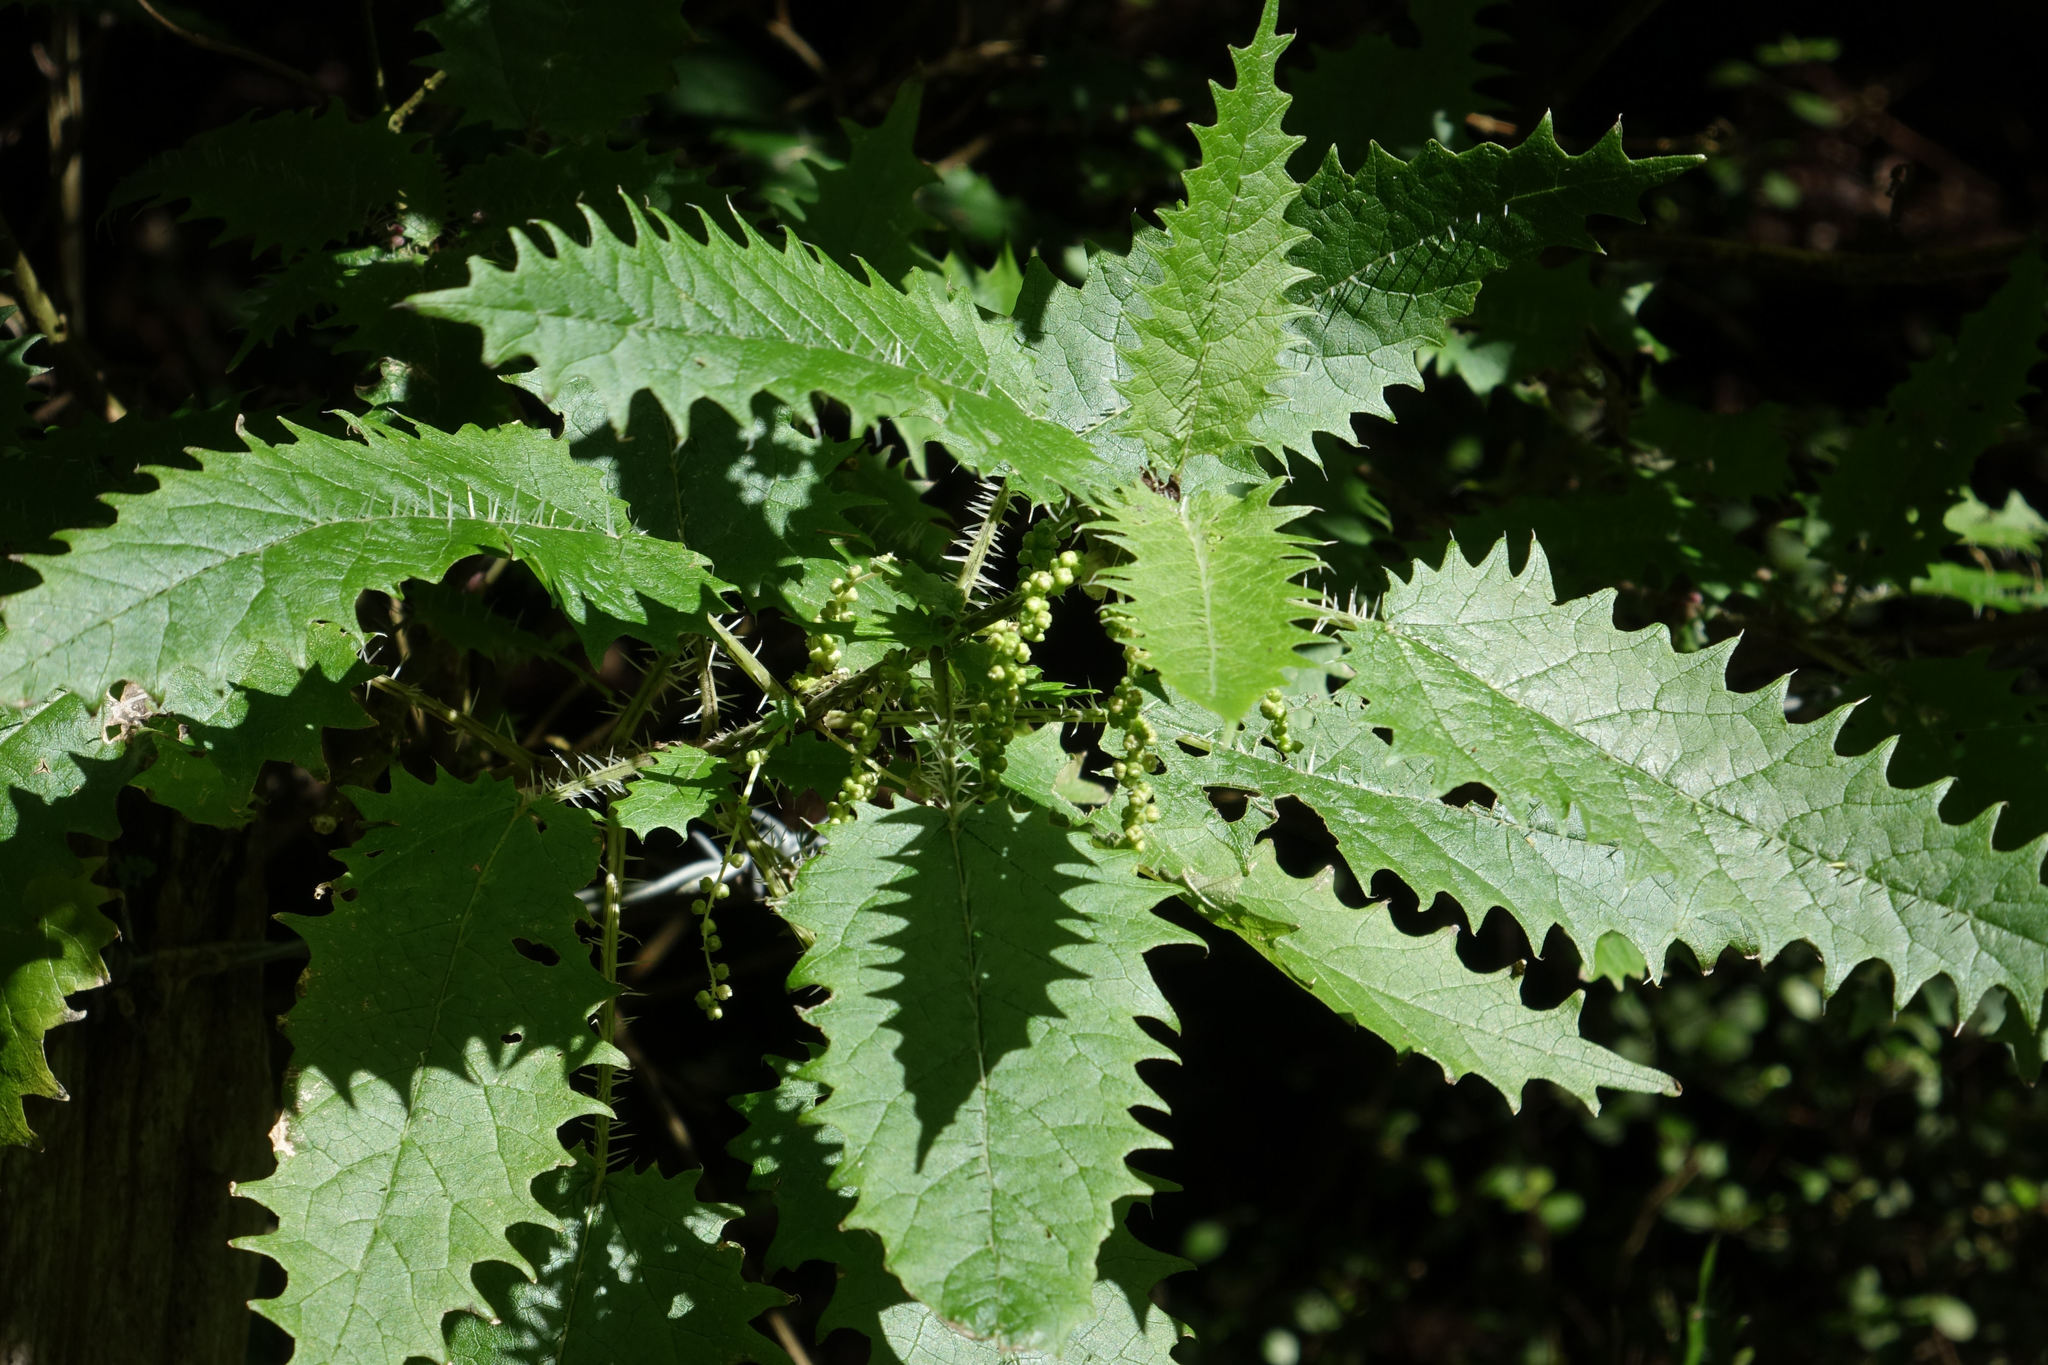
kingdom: Plantae
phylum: Tracheophyta
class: Magnoliopsida
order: Rosales
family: Urticaceae
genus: Urtica
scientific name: Urtica ferox
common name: Tree nettle
